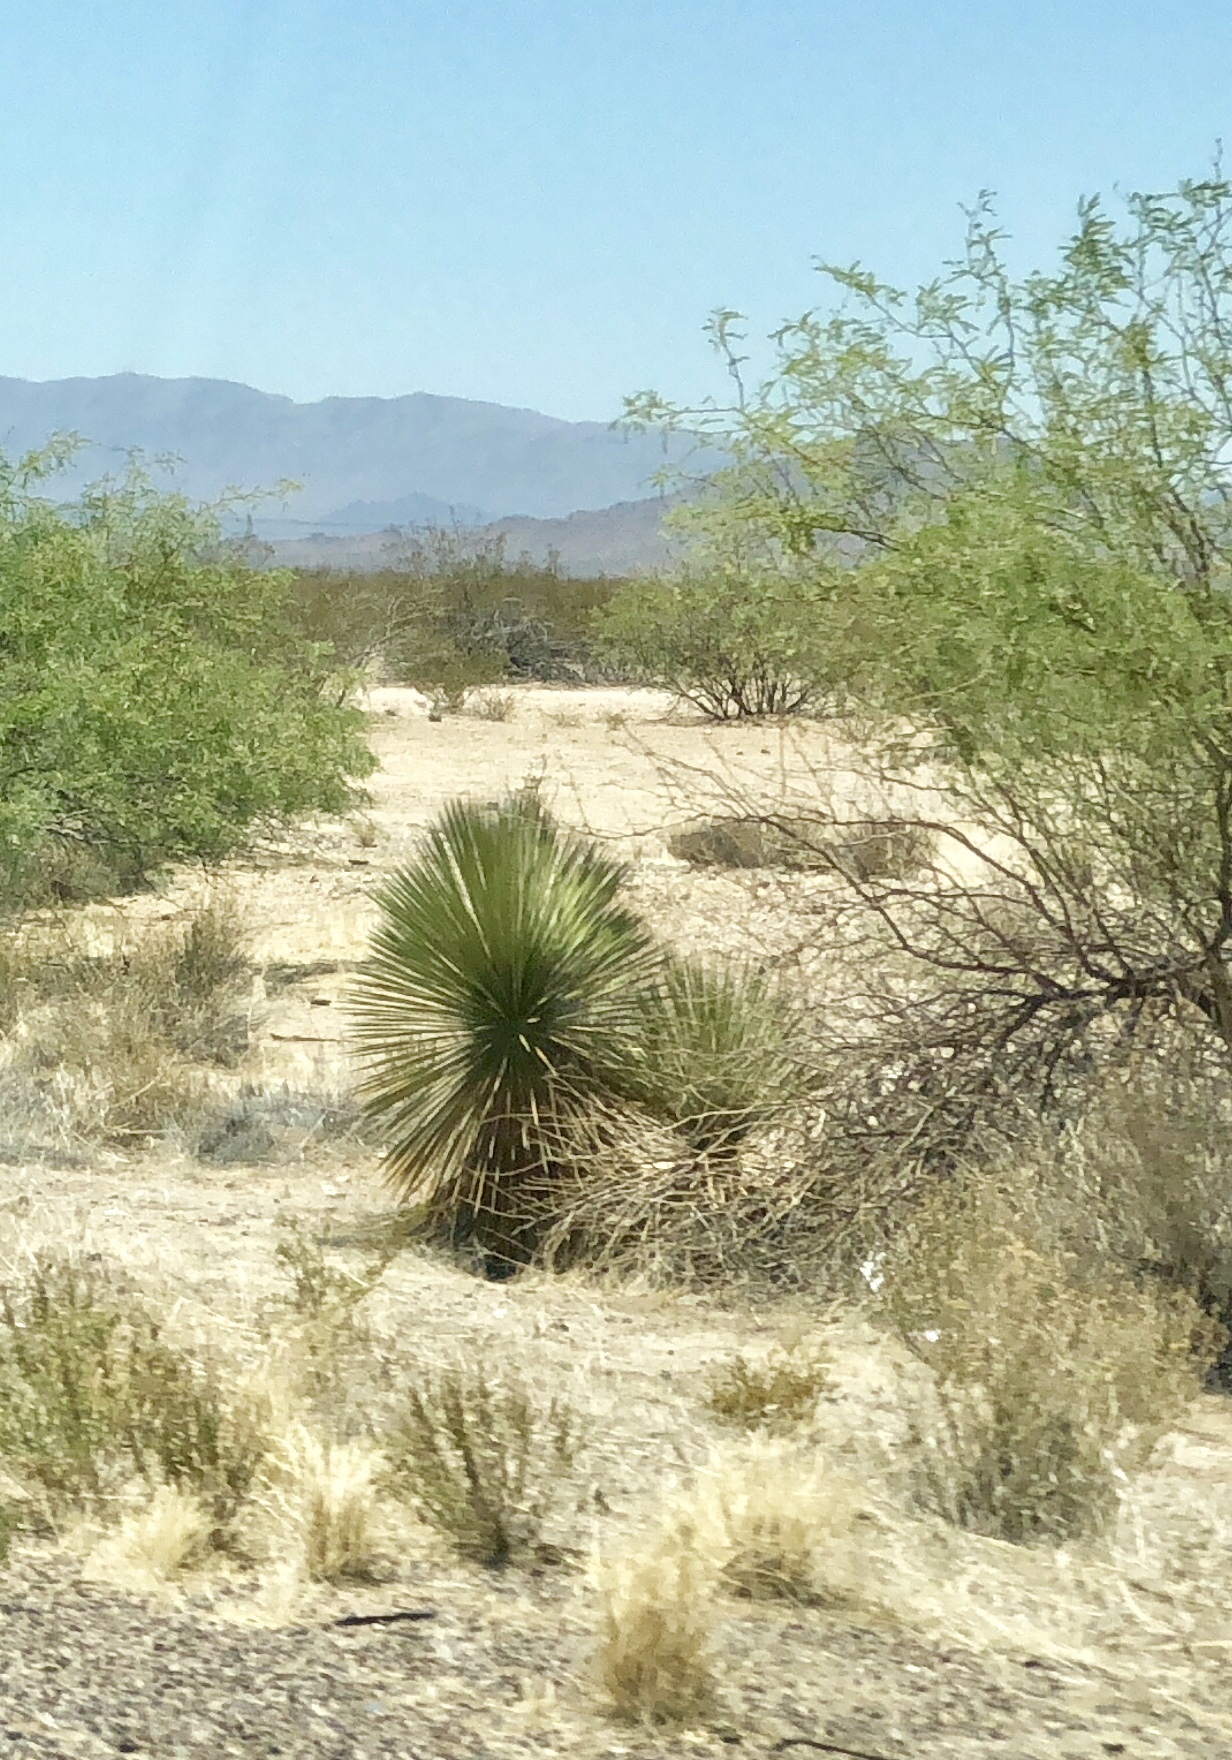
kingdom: Plantae
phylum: Tracheophyta
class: Liliopsida
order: Asparagales
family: Asparagaceae
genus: Yucca
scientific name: Yucca elata
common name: Palmella
